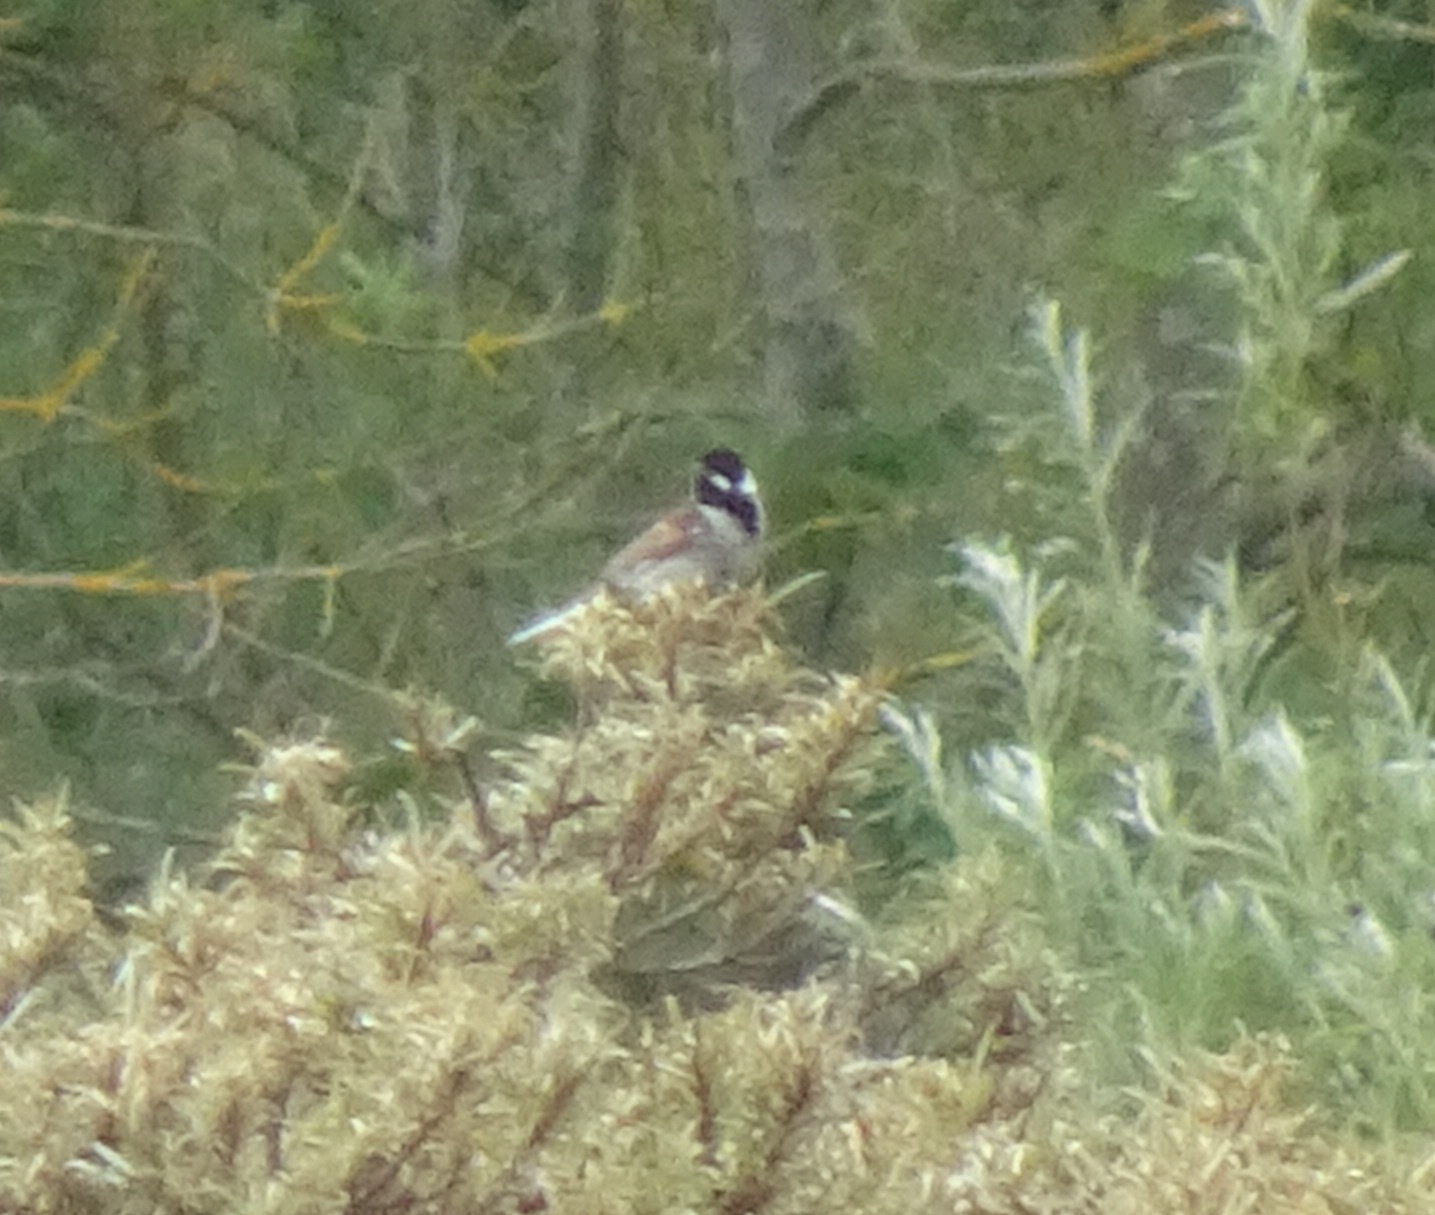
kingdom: Animalia
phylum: Chordata
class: Aves
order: Passeriformes
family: Emberizidae
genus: Emberiza
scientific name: Emberiza schoeniclus
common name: Reed bunting
